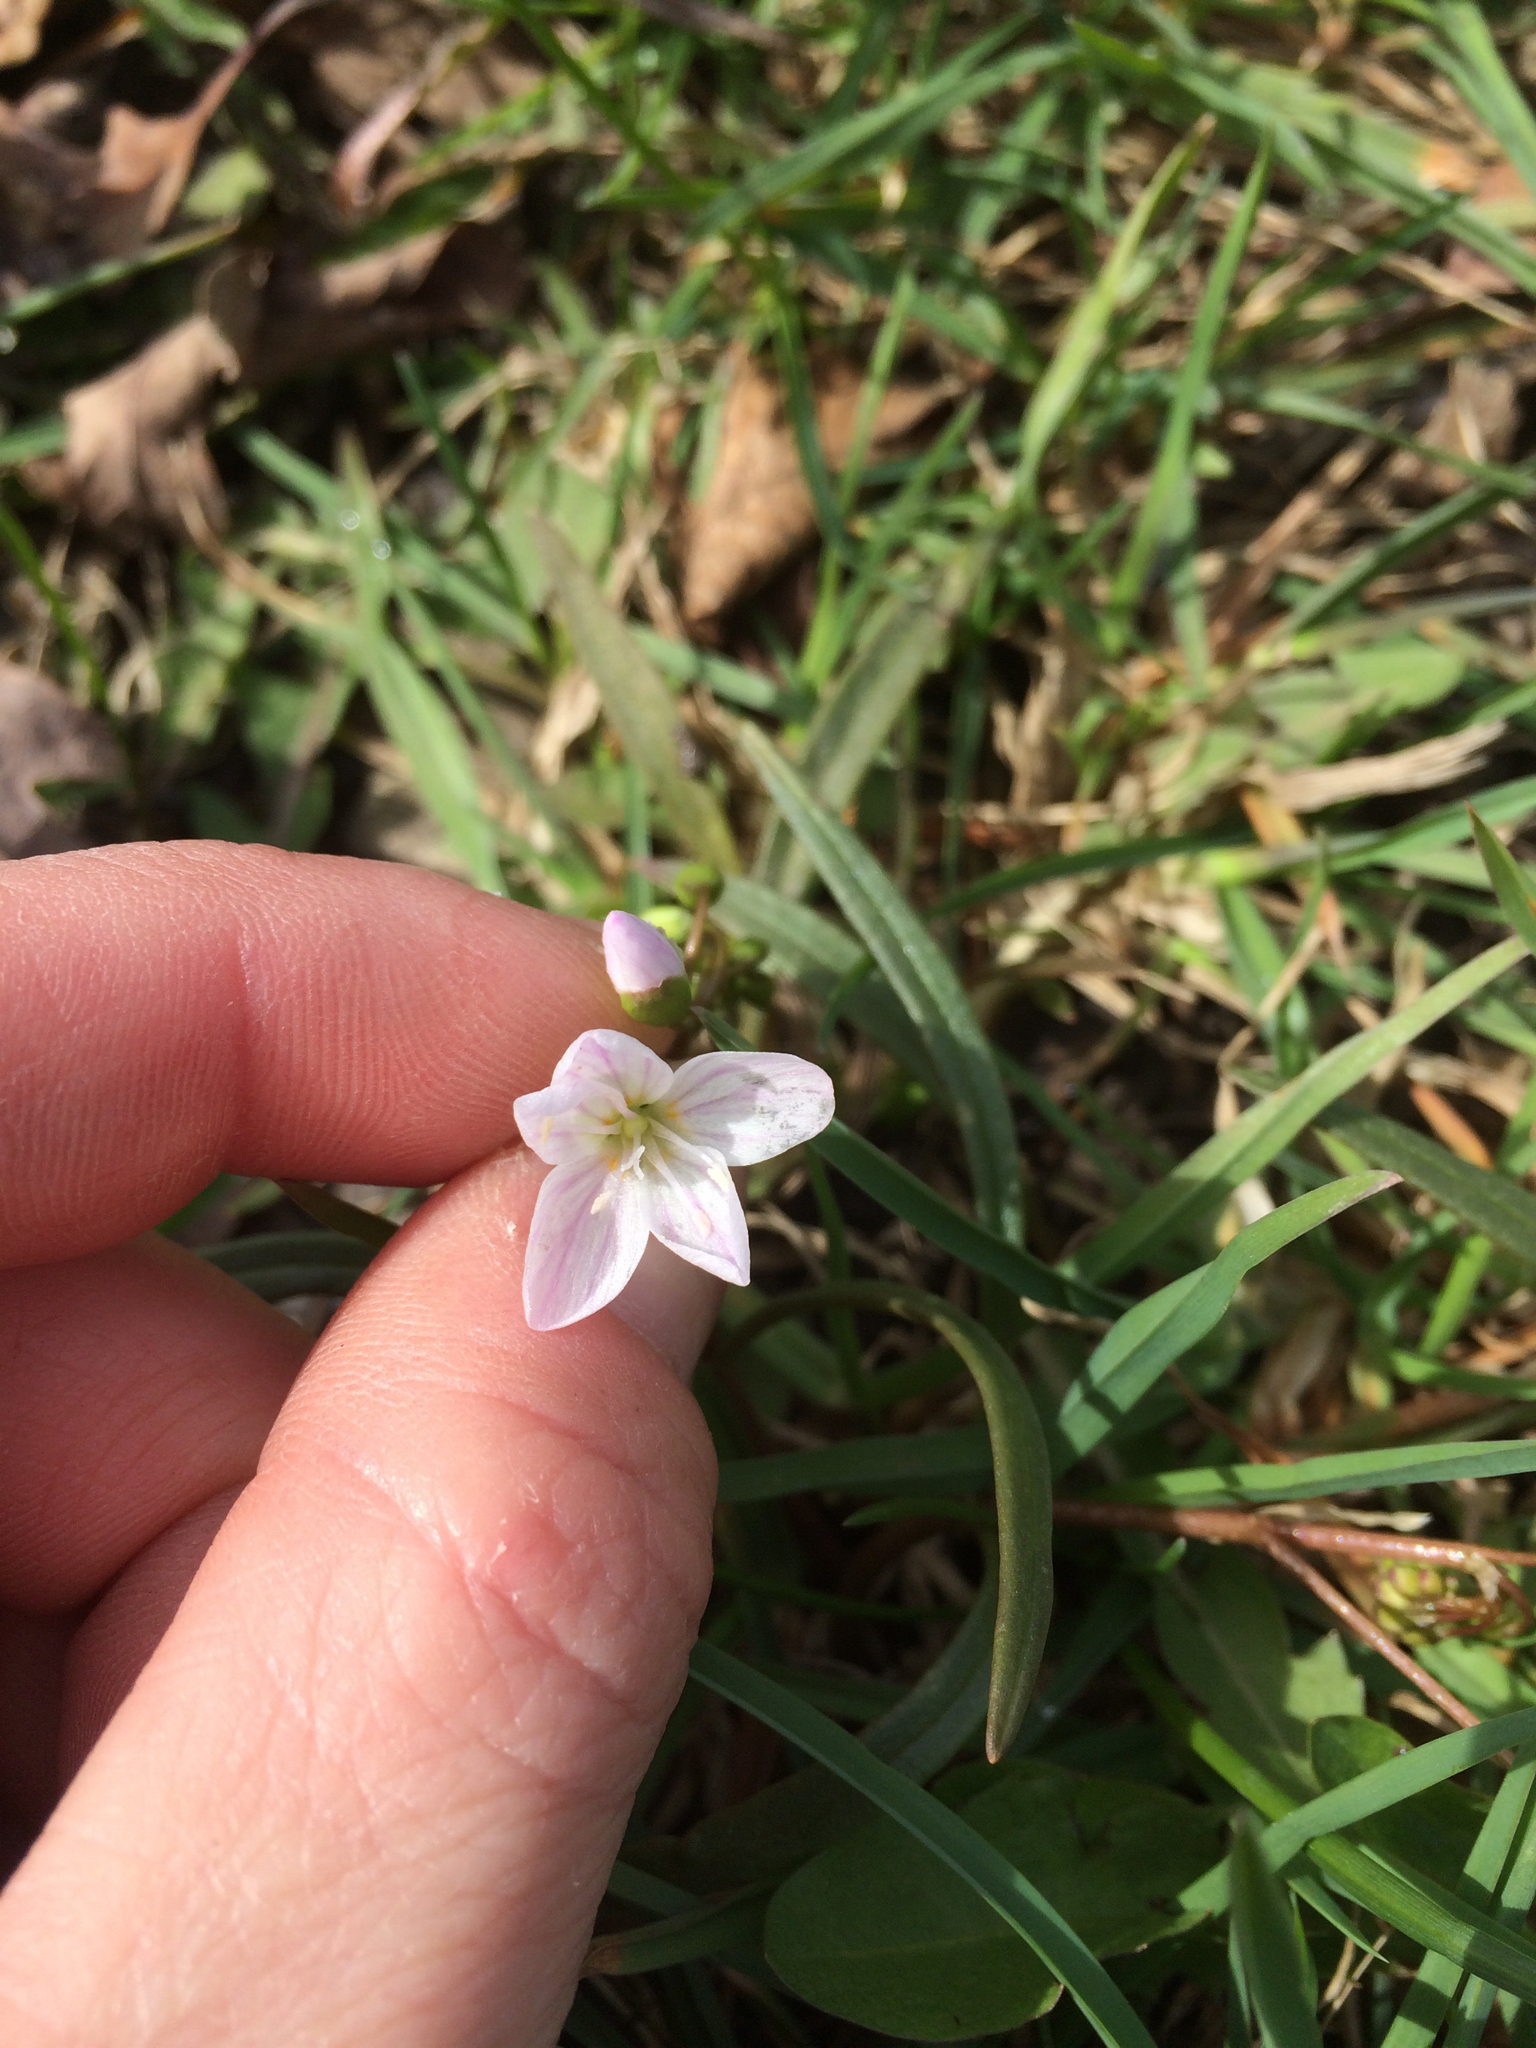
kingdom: Plantae
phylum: Tracheophyta
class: Magnoliopsida
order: Caryophyllales
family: Montiaceae
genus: Claytonia
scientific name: Claytonia virginica
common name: Virginia springbeauty
